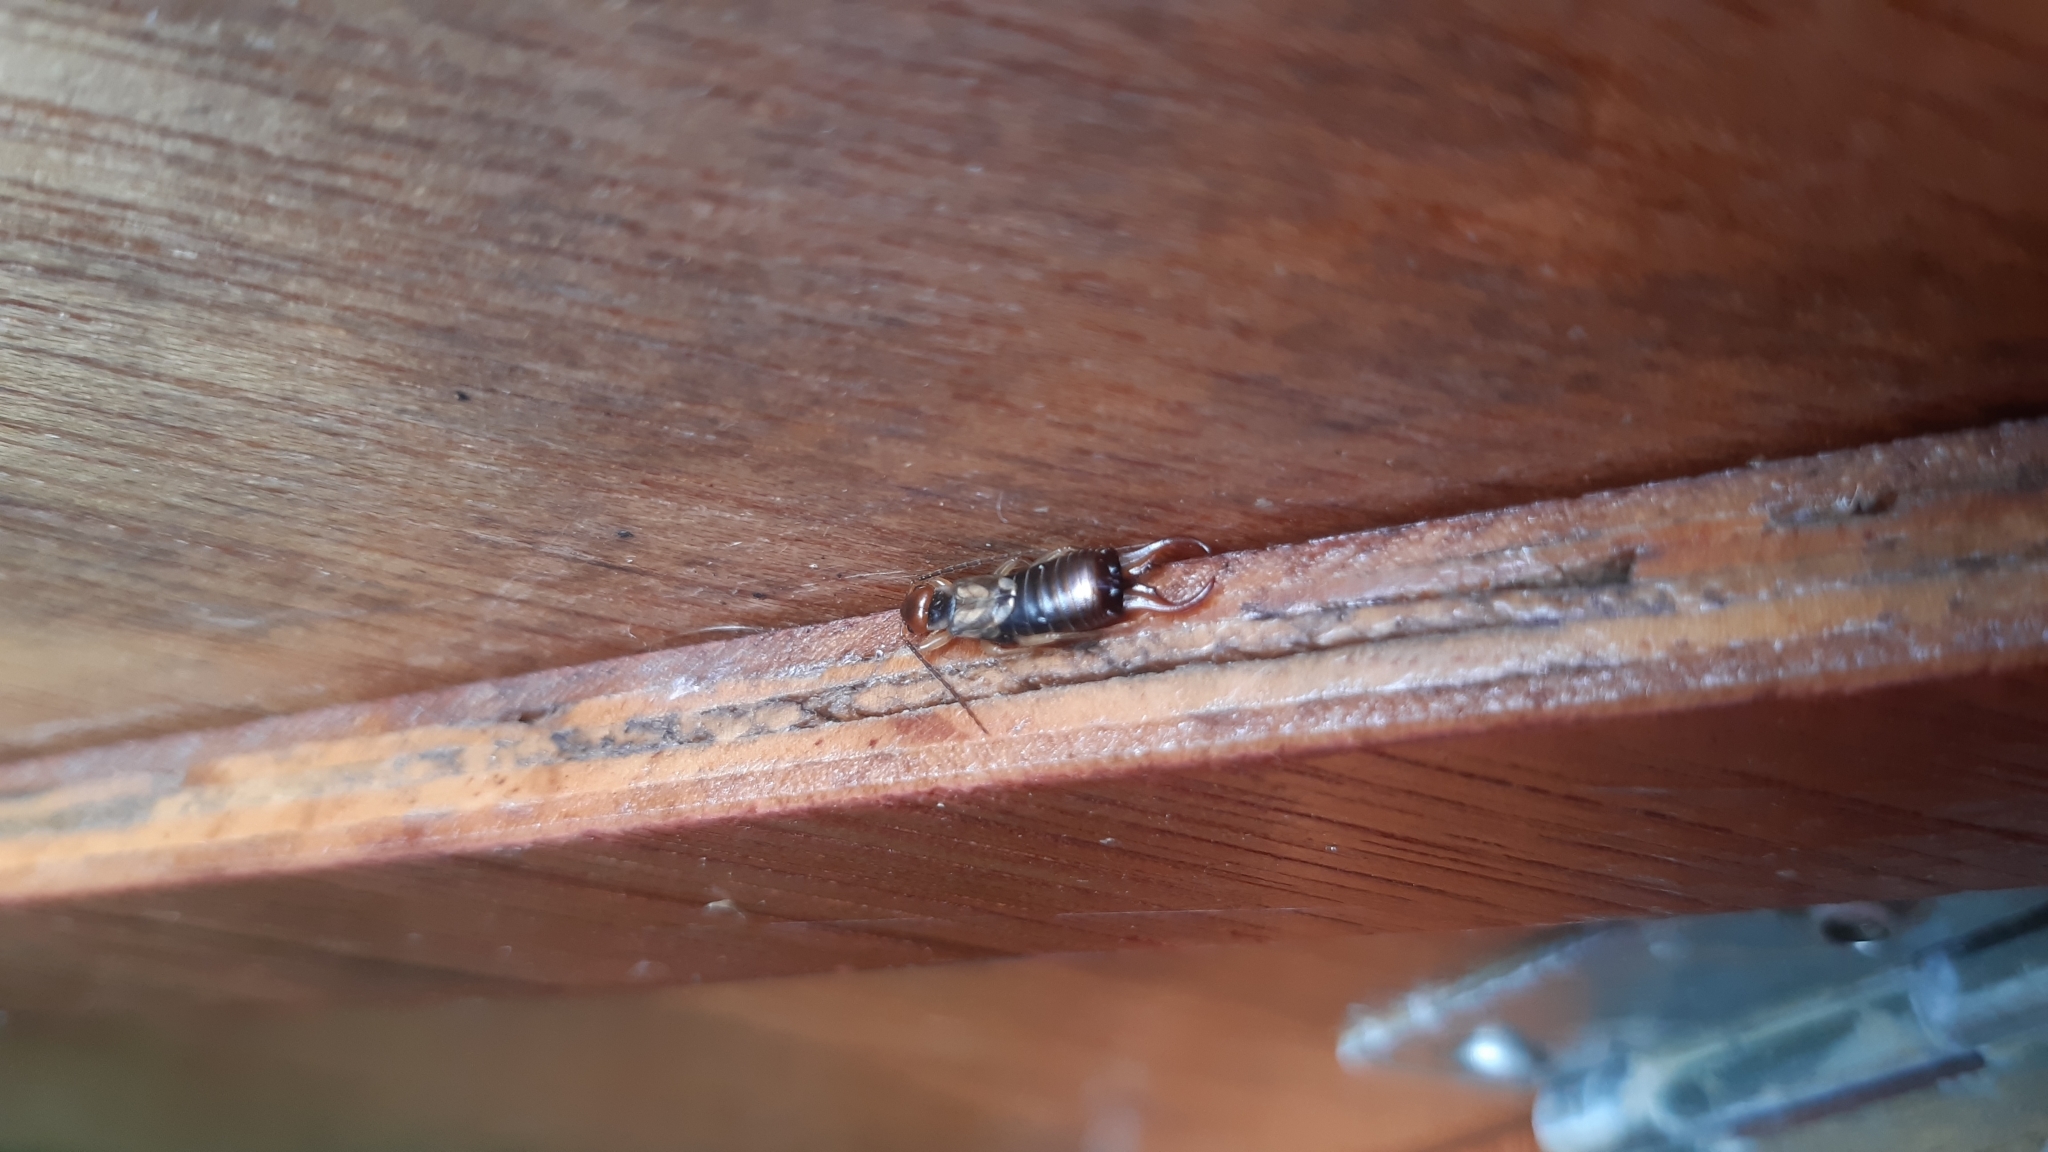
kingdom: Animalia
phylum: Arthropoda
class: Insecta
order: Dermaptera
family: Forficulidae
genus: Forficula
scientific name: Forficula
